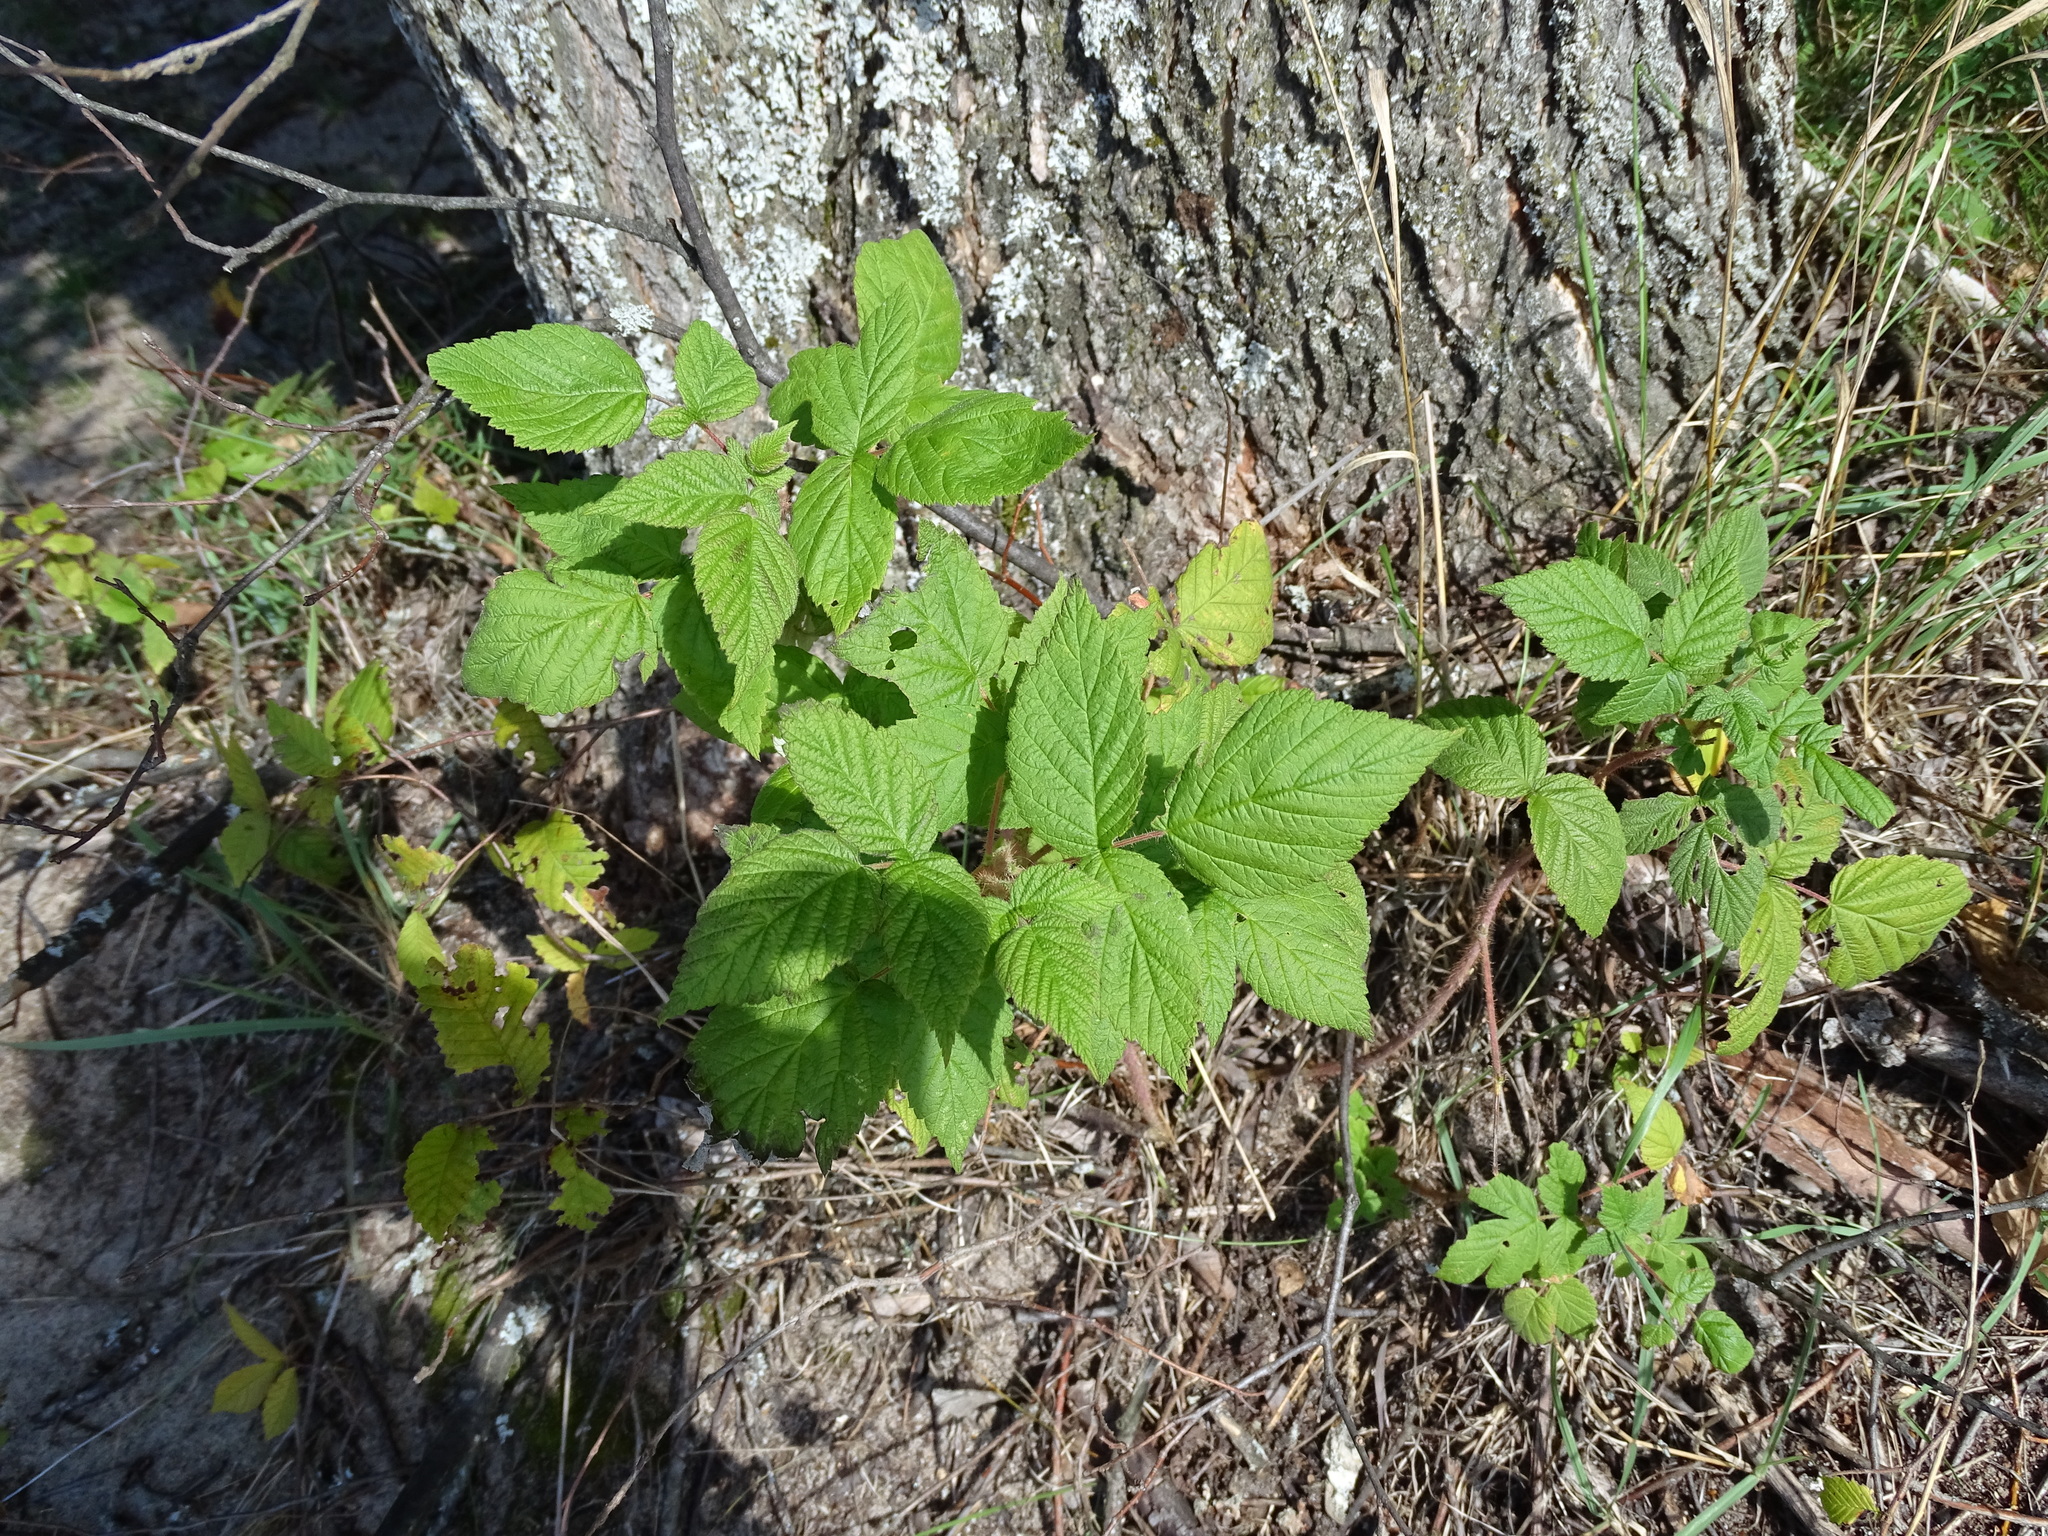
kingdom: Plantae
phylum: Tracheophyta
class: Magnoliopsida
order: Rosales
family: Rosaceae
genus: Rubus
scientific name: Rubus idaeus
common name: Raspberry
